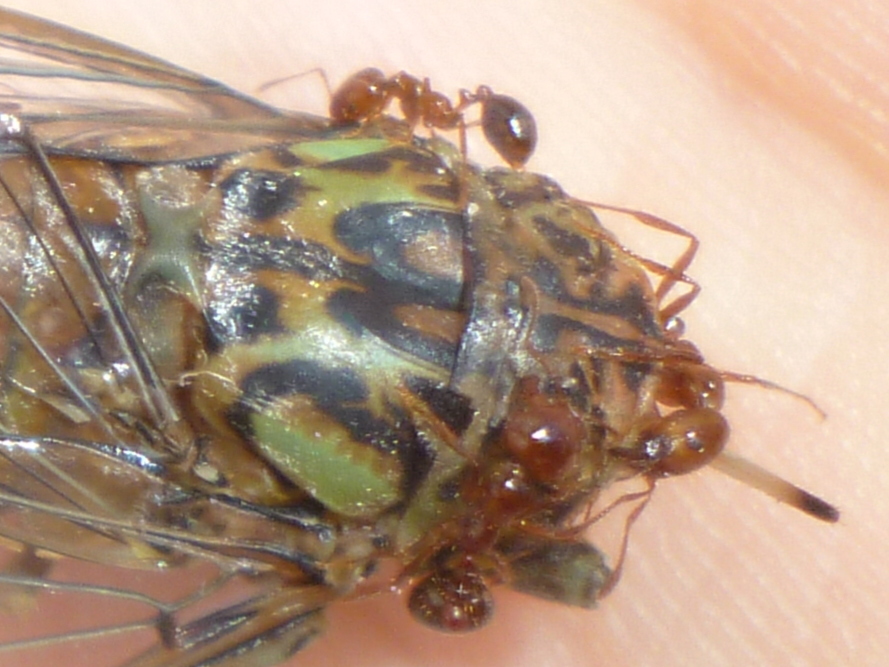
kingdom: Animalia
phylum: Arthropoda
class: Insecta
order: Hymenoptera
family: Formicidae
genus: Solenopsis
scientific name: Solenopsis invicta
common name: Red imported fire ant
